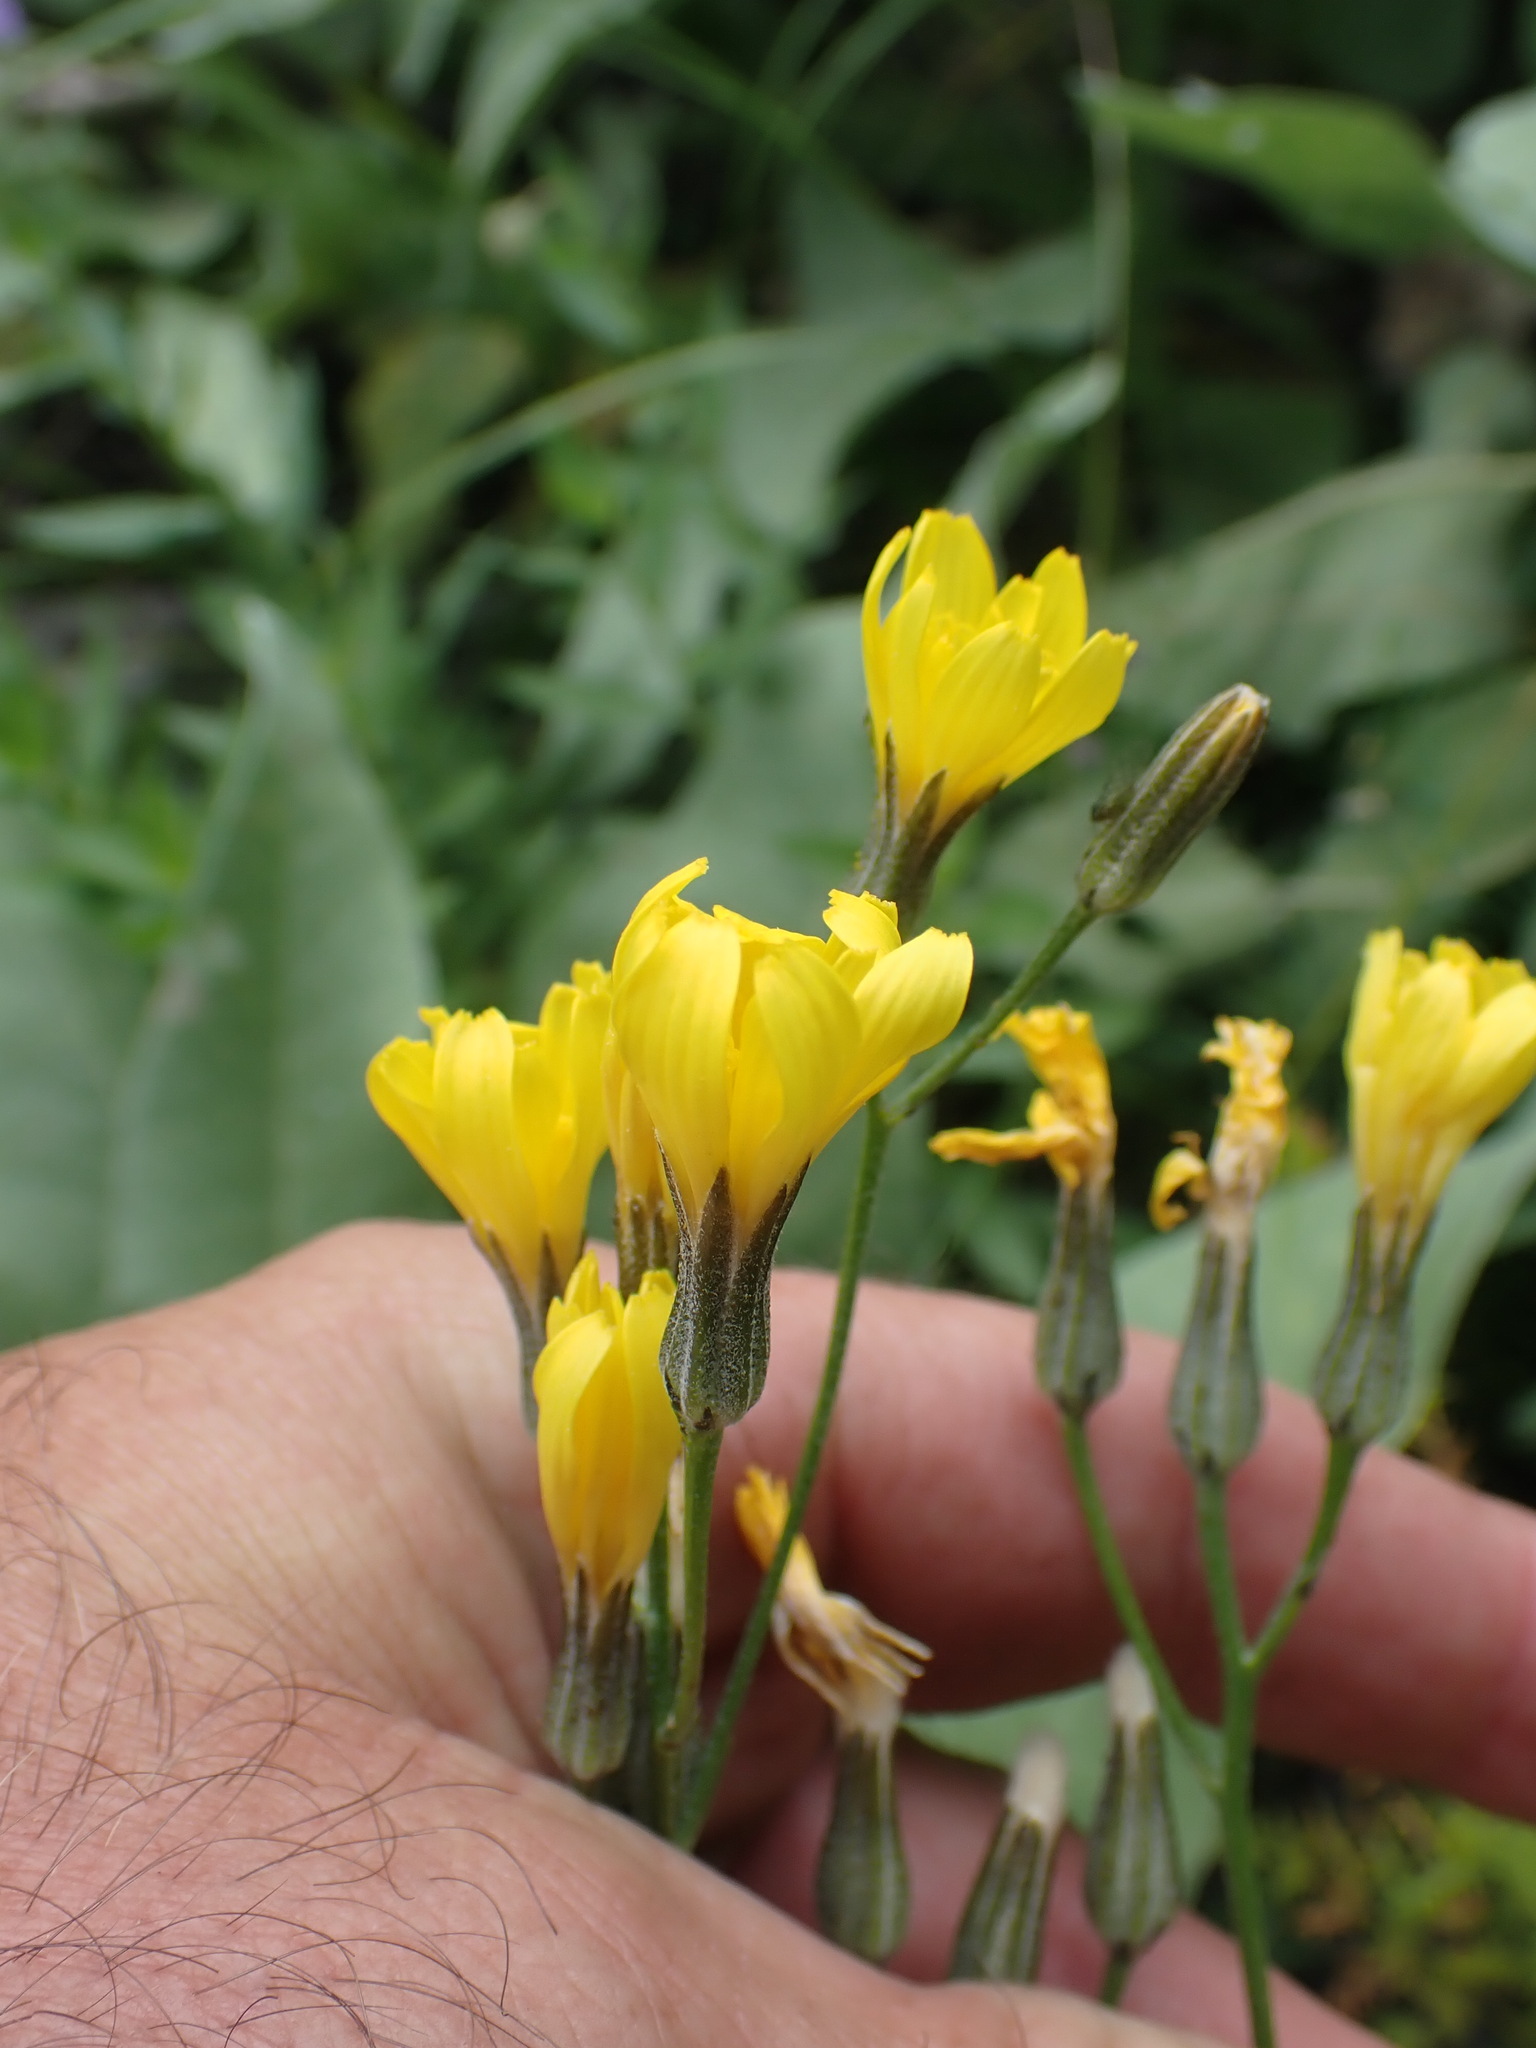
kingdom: Plantae
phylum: Tracheophyta
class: Magnoliopsida
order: Asterales
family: Asteraceae
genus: Crepis
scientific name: Crepis atribarba
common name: Dark hawk's-beard
